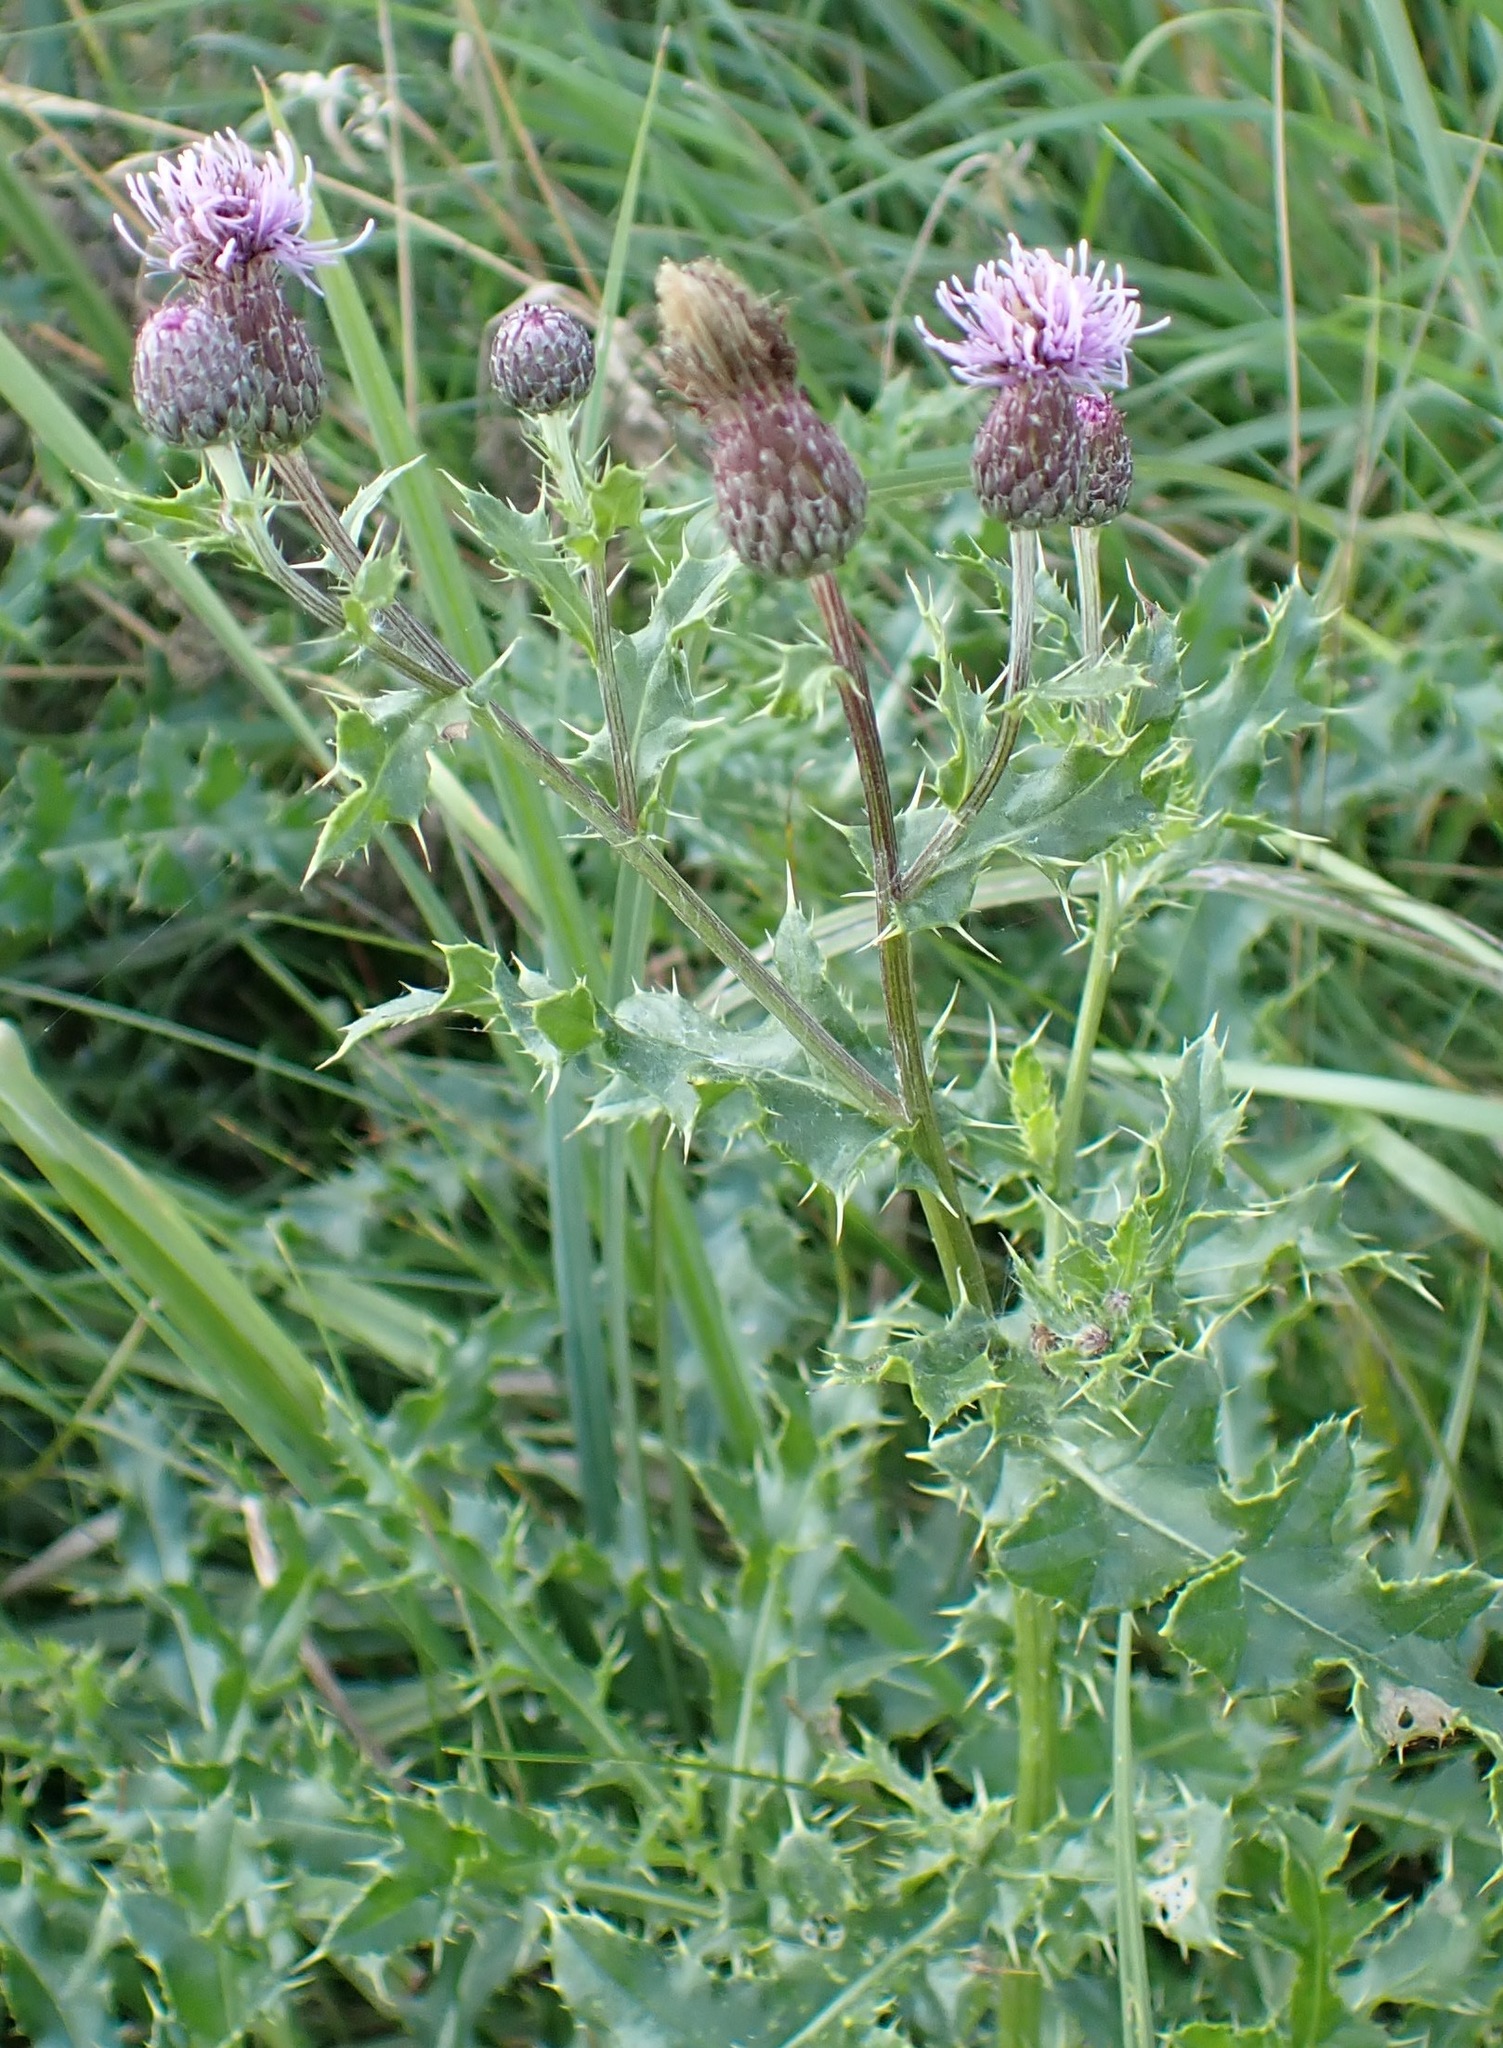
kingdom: Plantae
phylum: Tracheophyta
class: Magnoliopsida
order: Asterales
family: Asteraceae
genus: Cirsium
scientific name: Cirsium arvense
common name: Creeping thistle
